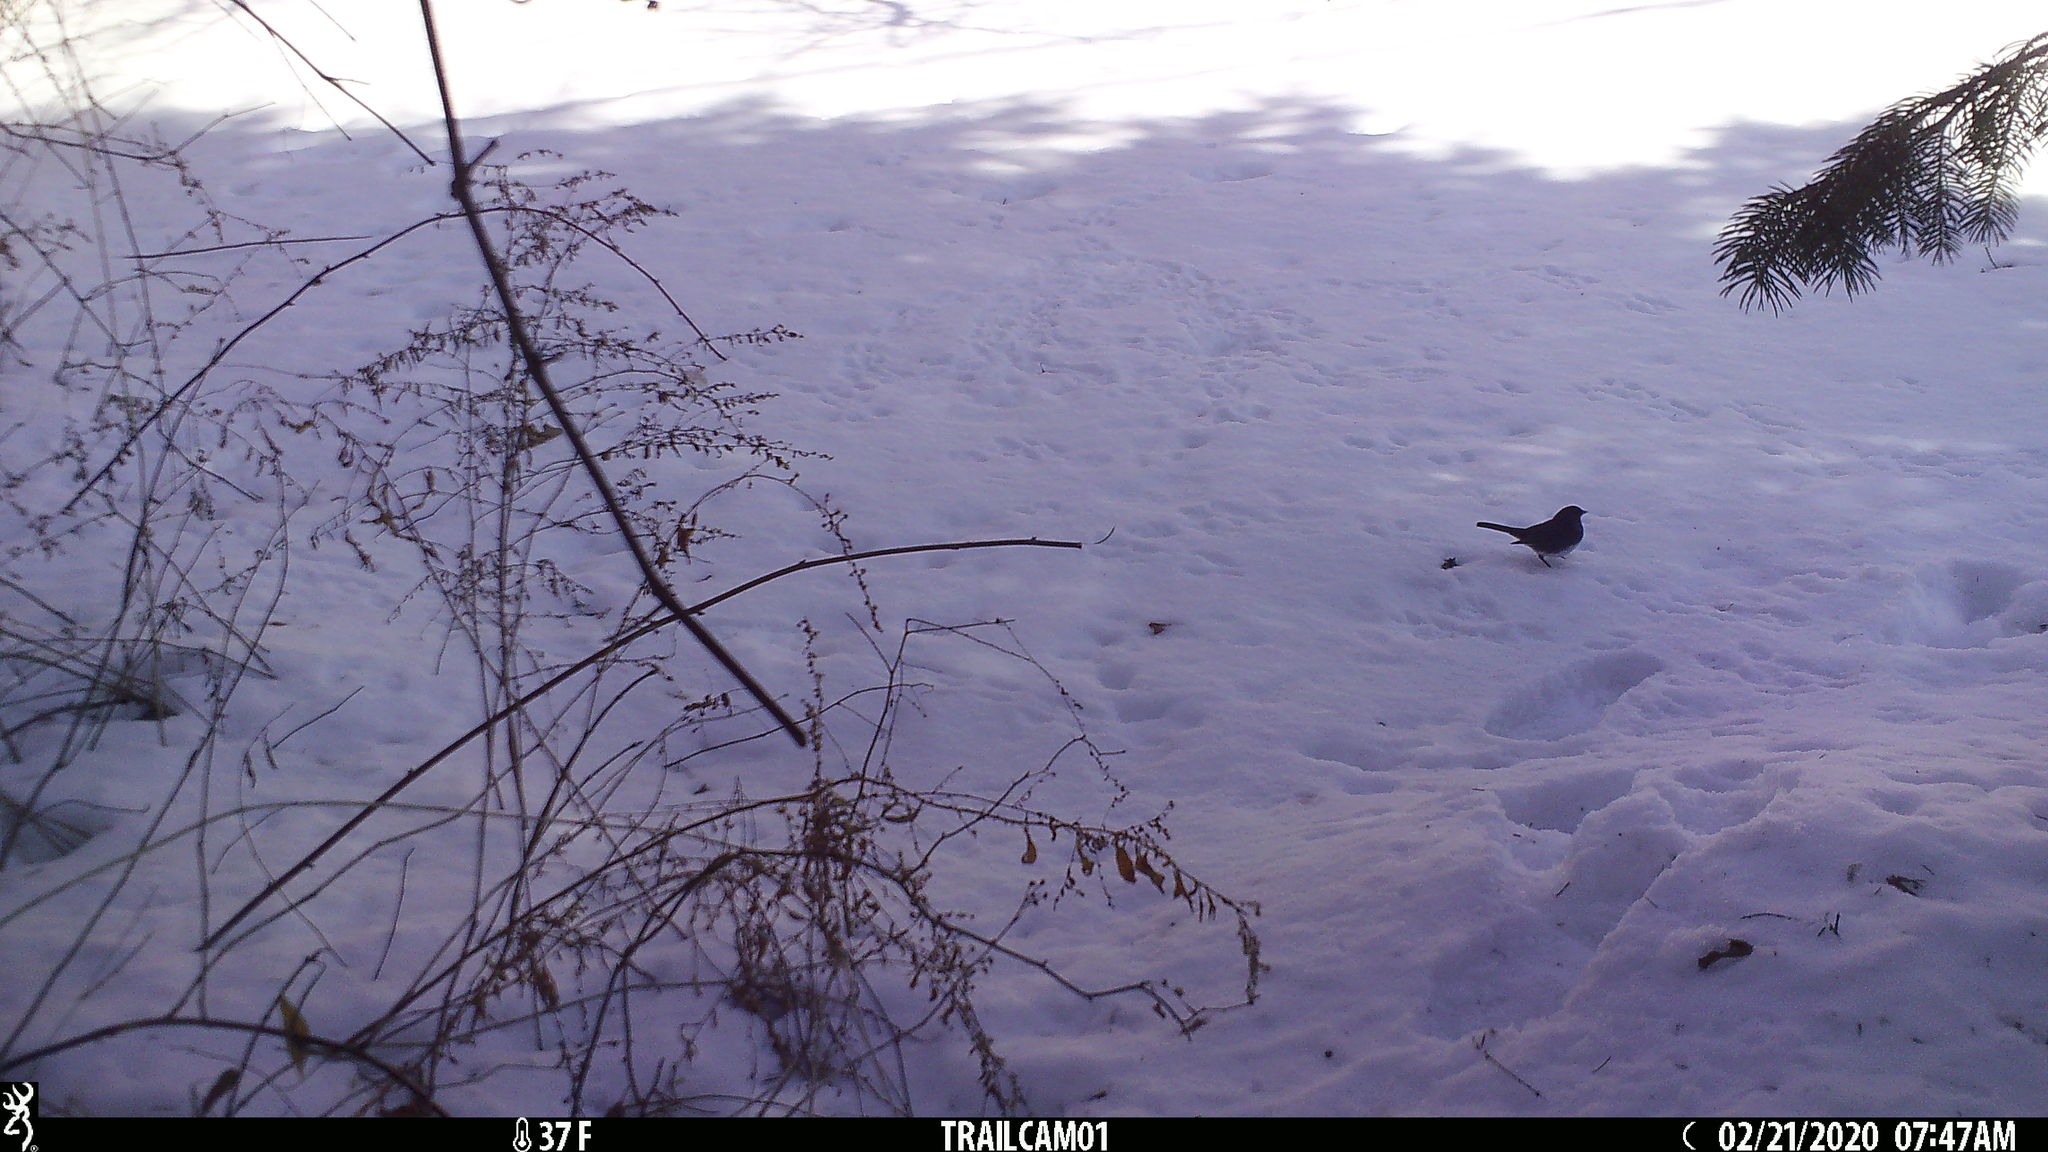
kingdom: Animalia
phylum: Chordata
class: Aves
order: Passeriformes
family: Passerellidae
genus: Junco
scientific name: Junco hyemalis
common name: Dark-eyed junco
